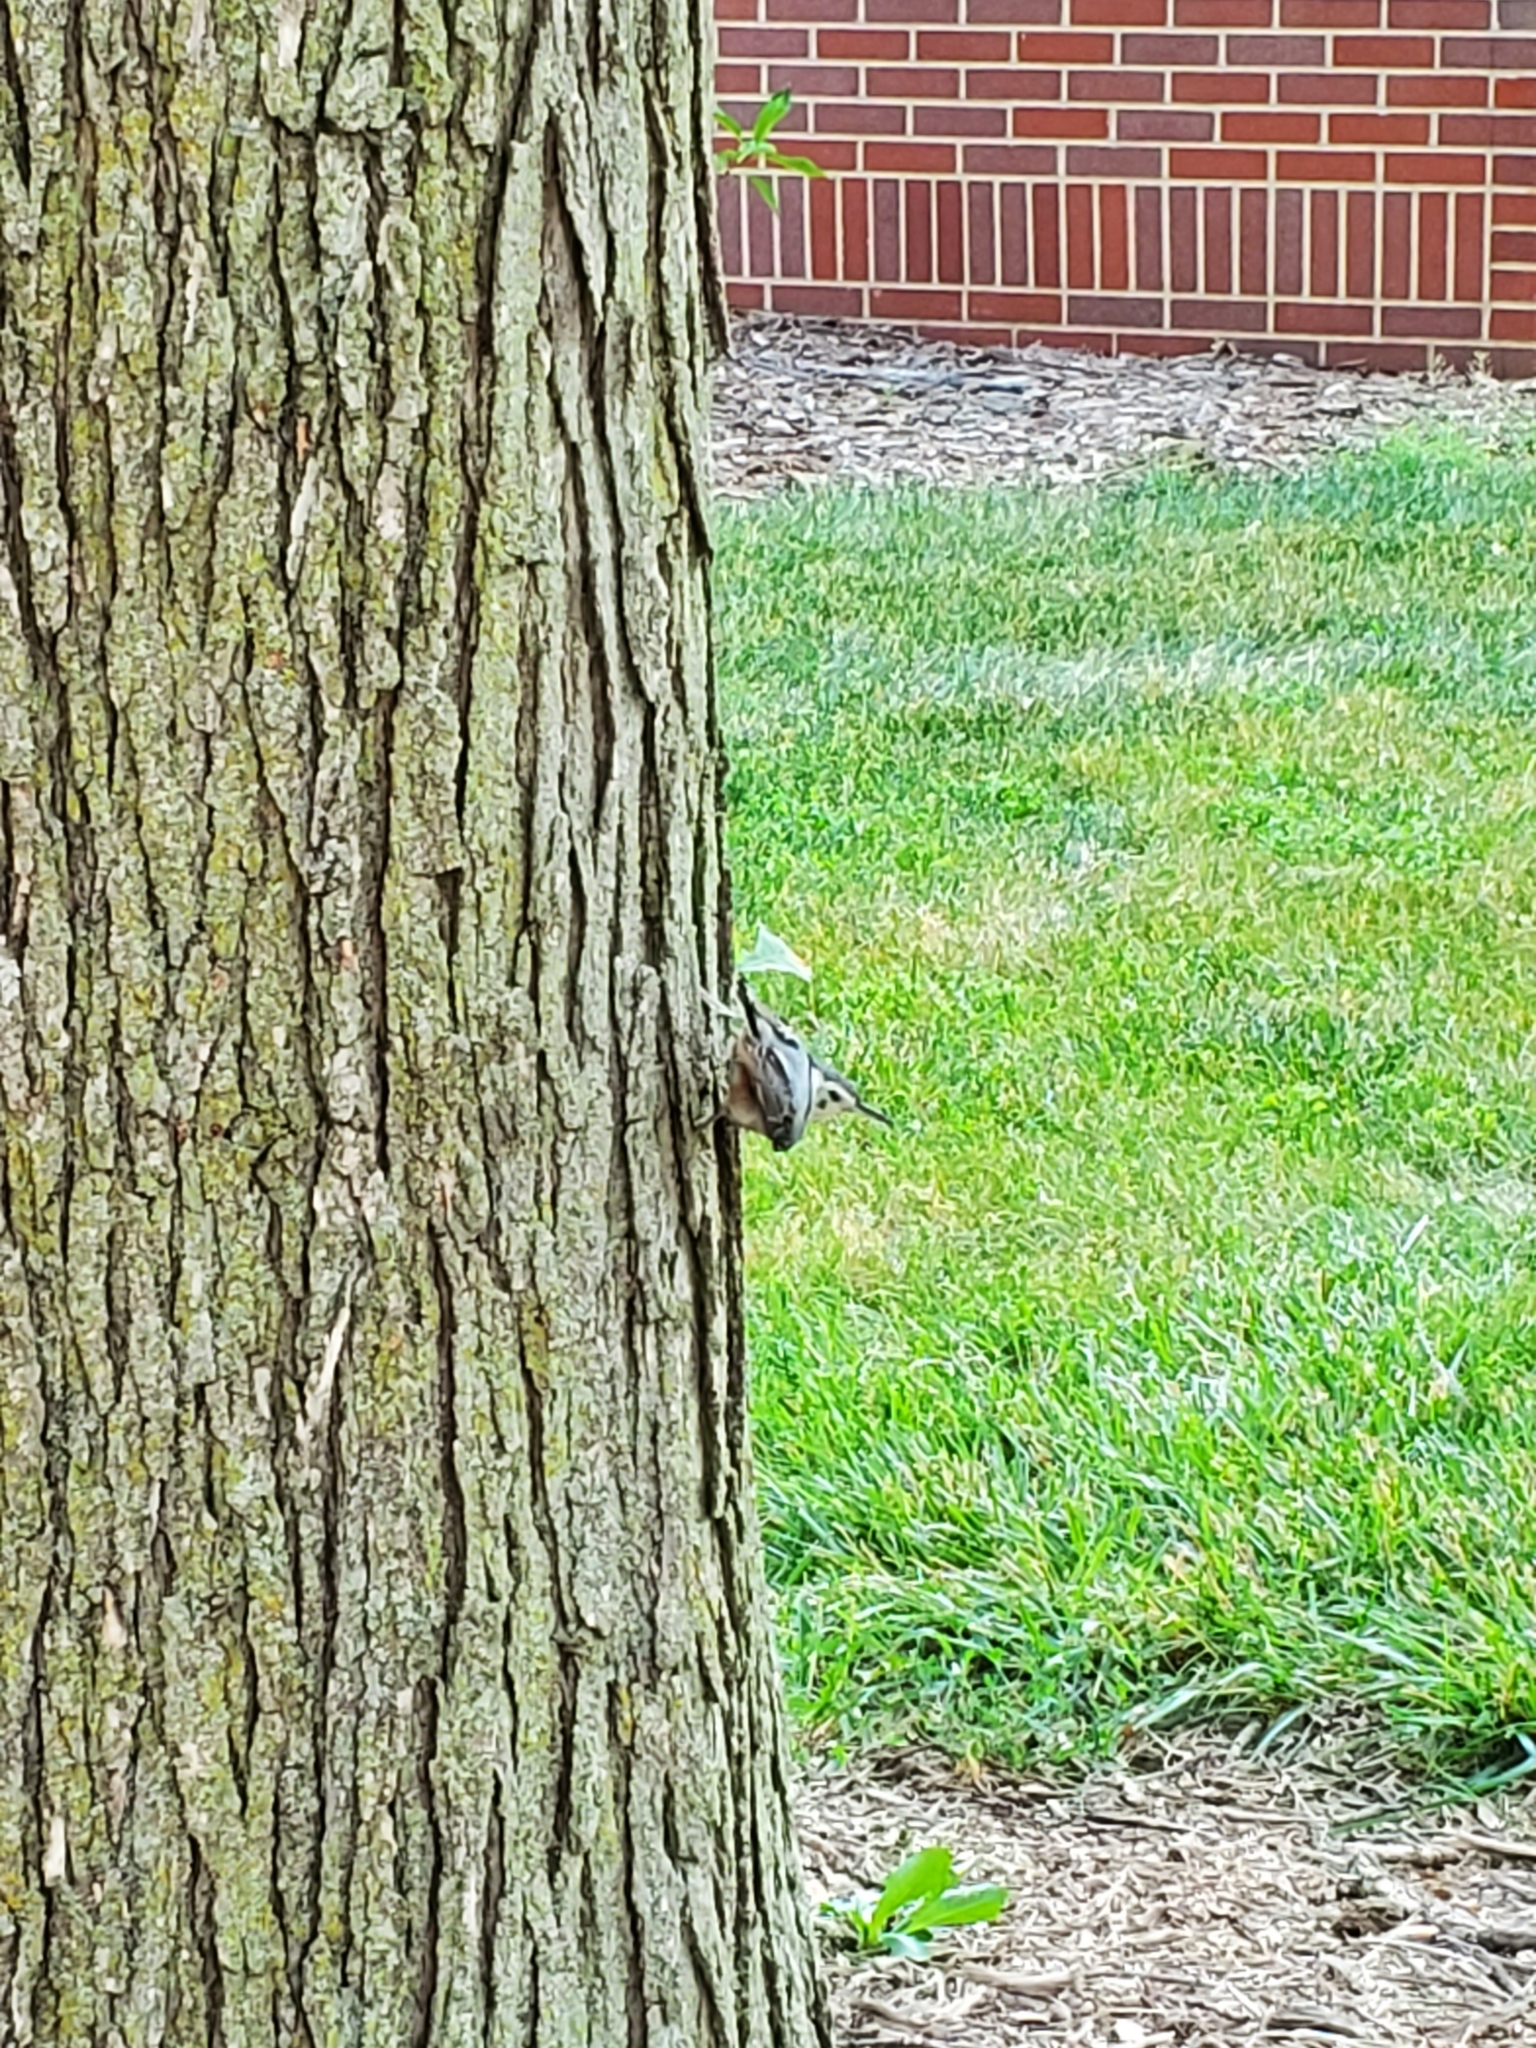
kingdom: Animalia
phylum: Chordata
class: Aves
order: Passeriformes
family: Sittidae
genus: Sitta
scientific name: Sitta carolinensis
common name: White-breasted nuthatch
